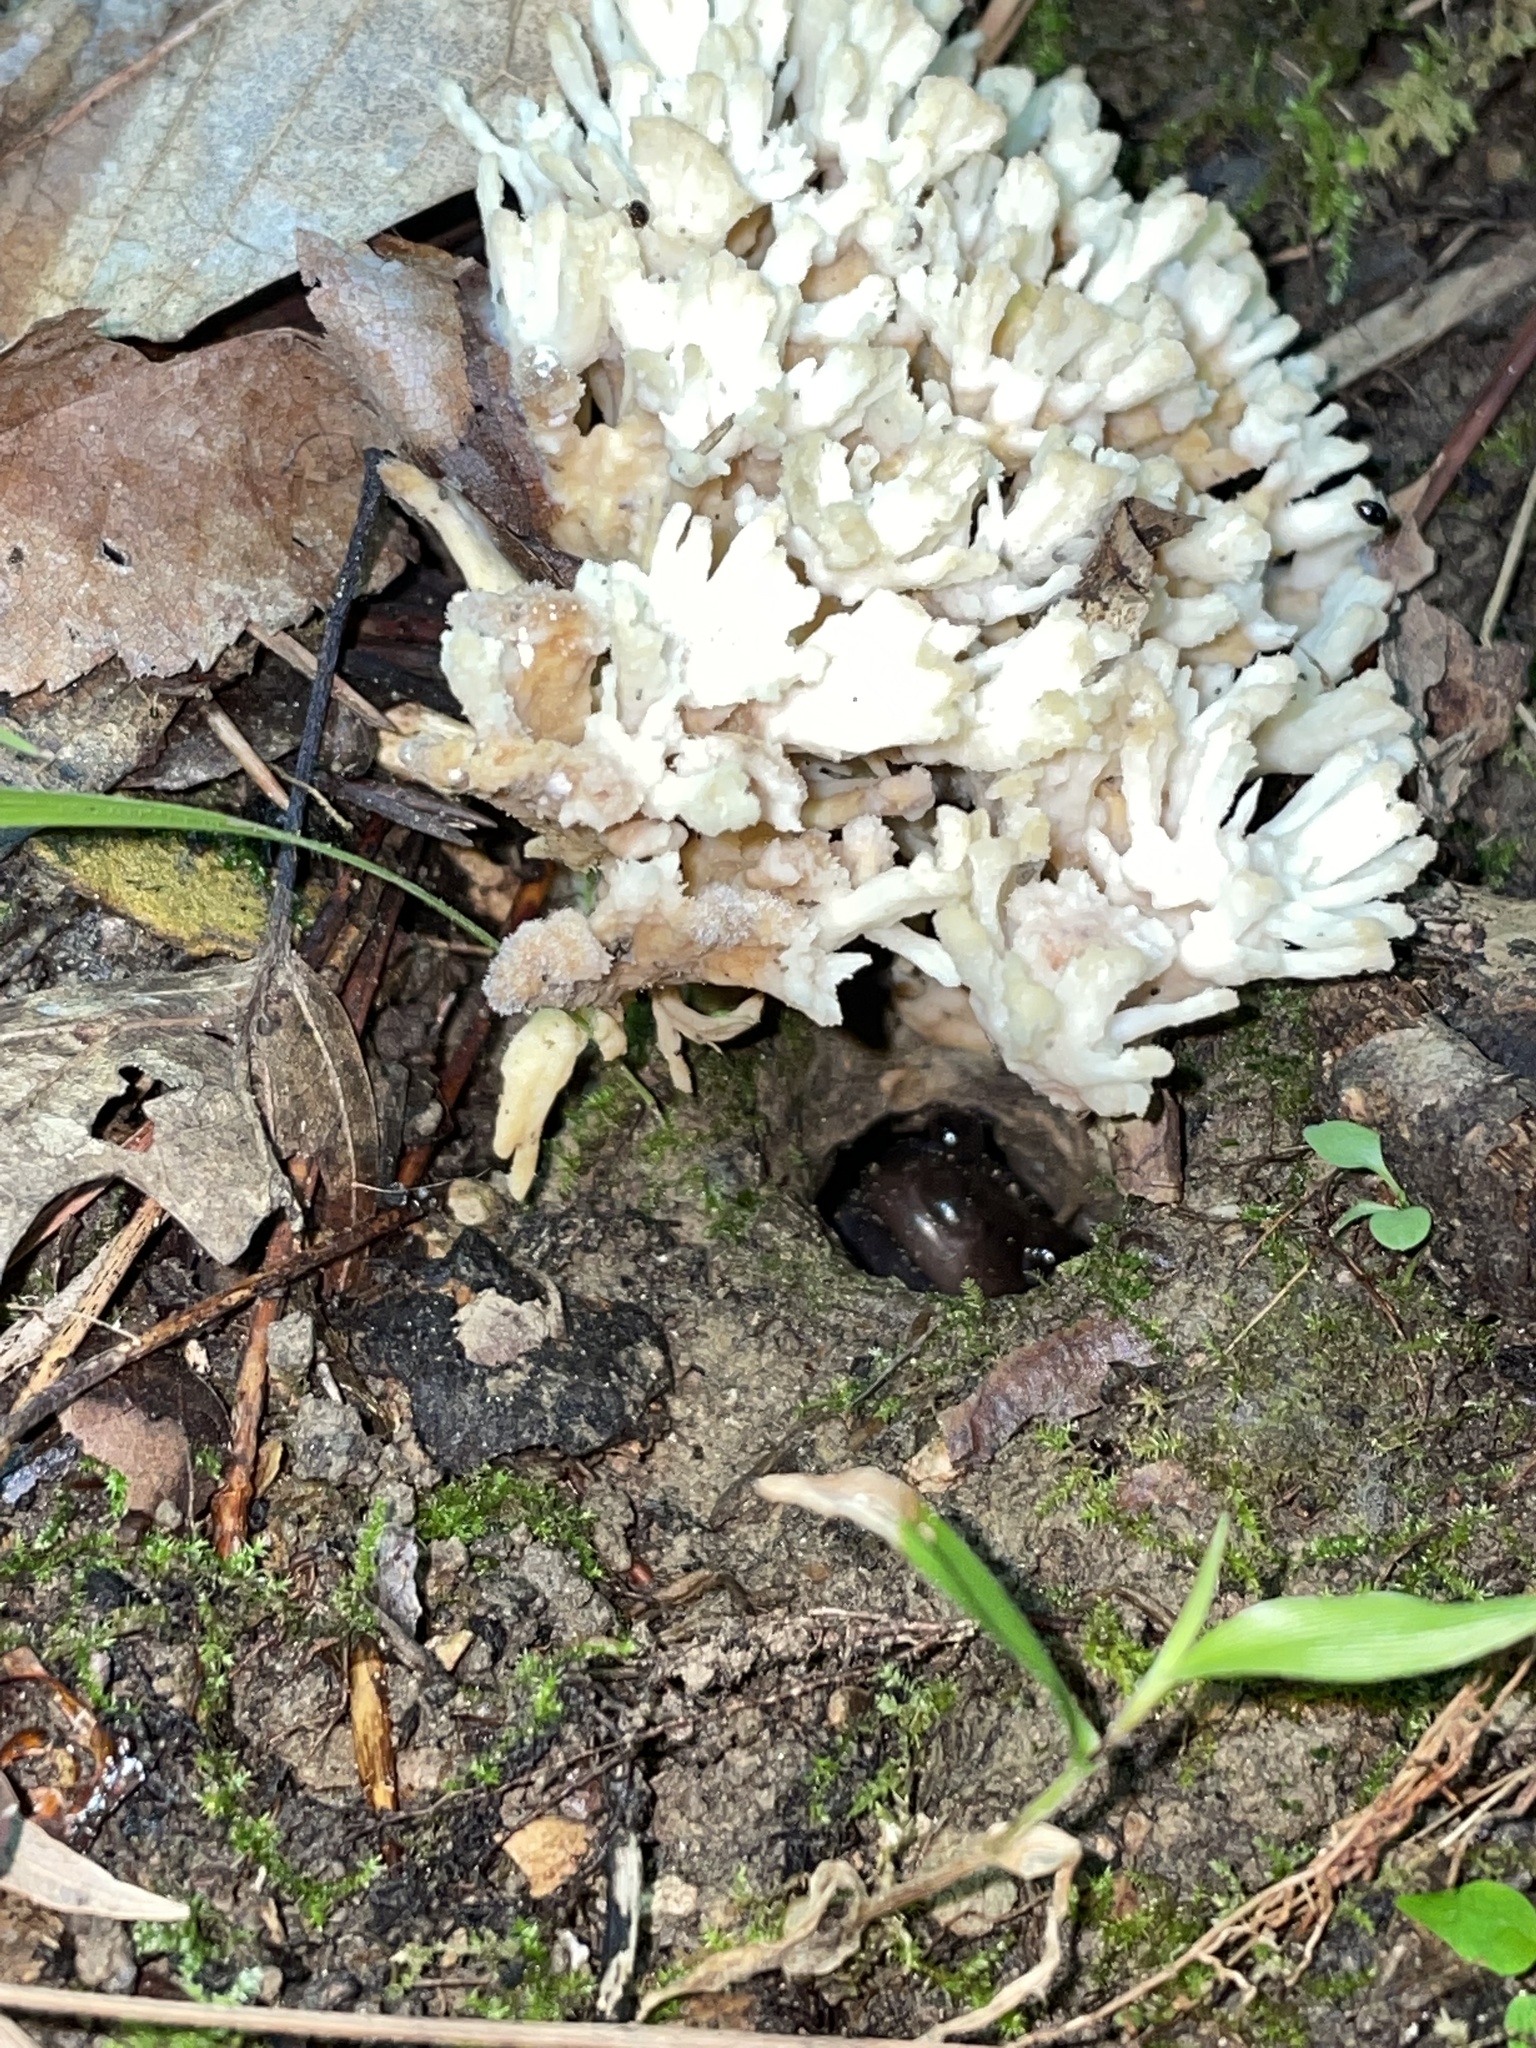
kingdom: Animalia
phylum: Chordata
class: Amphibia
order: Caudata
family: Plethodontidae
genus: Phaeognathus
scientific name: Phaeognathus hubrichti
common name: Red hills salamander
